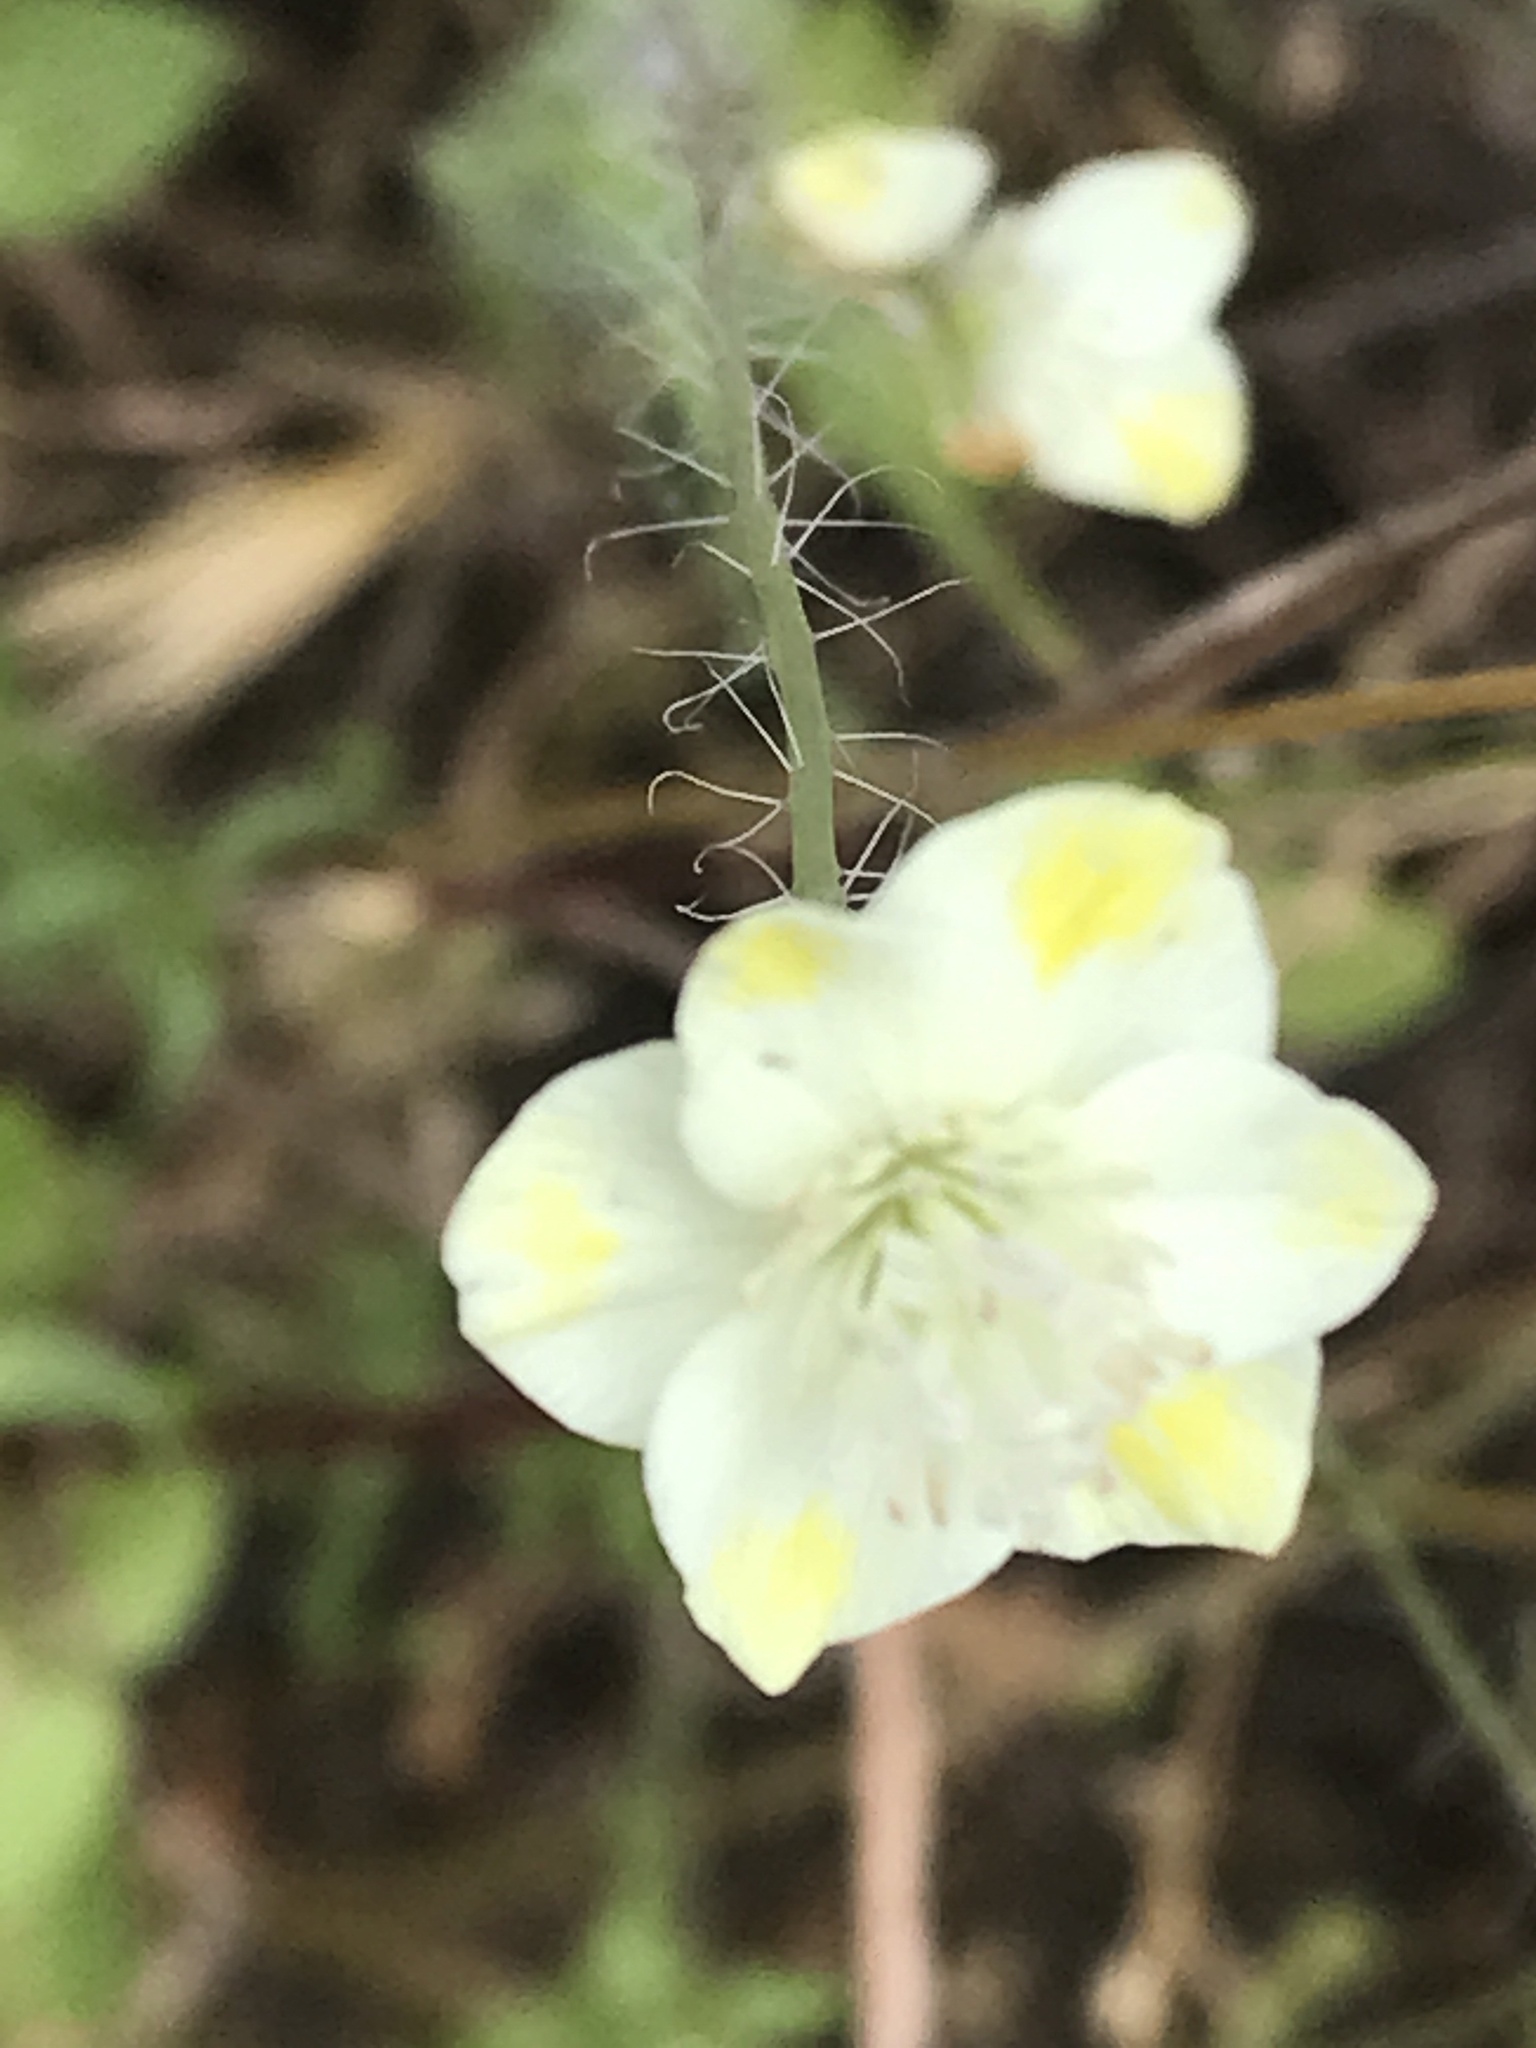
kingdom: Plantae
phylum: Tracheophyta
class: Magnoliopsida
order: Ranunculales
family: Papaveraceae
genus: Platystemon
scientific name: Platystemon californicus
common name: Cream-cups
